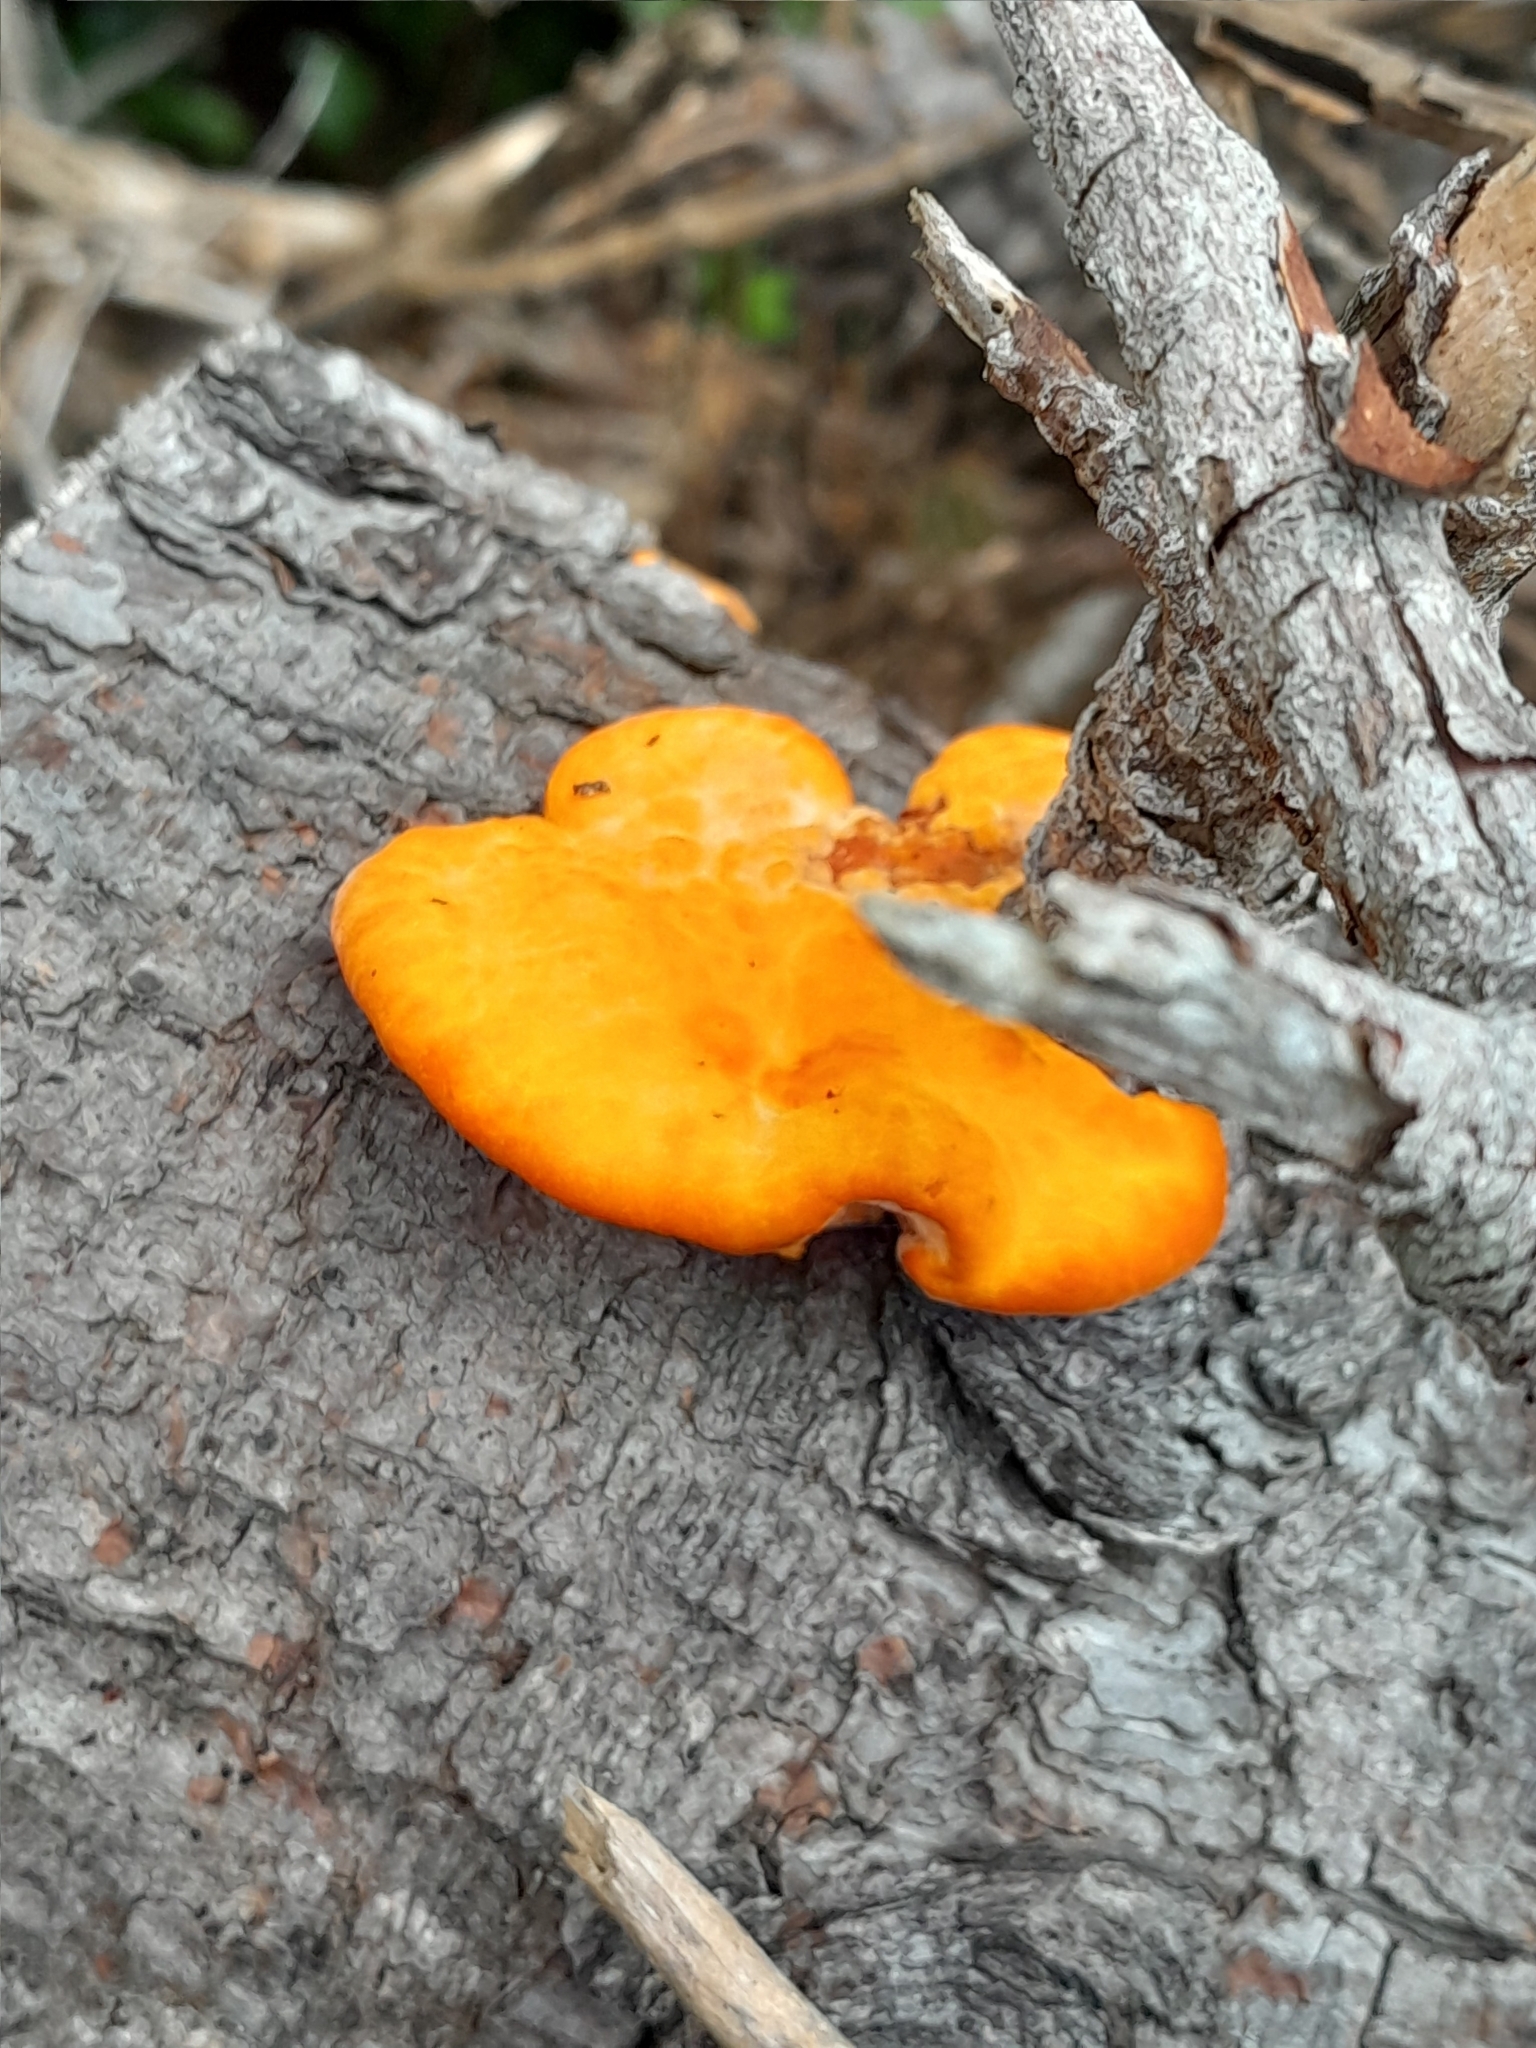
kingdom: Fungi
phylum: Basidiomycota
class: Agaricomycetes
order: Polyporales
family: Polyporaceae
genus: Trametes
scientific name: Trametes coccinea
